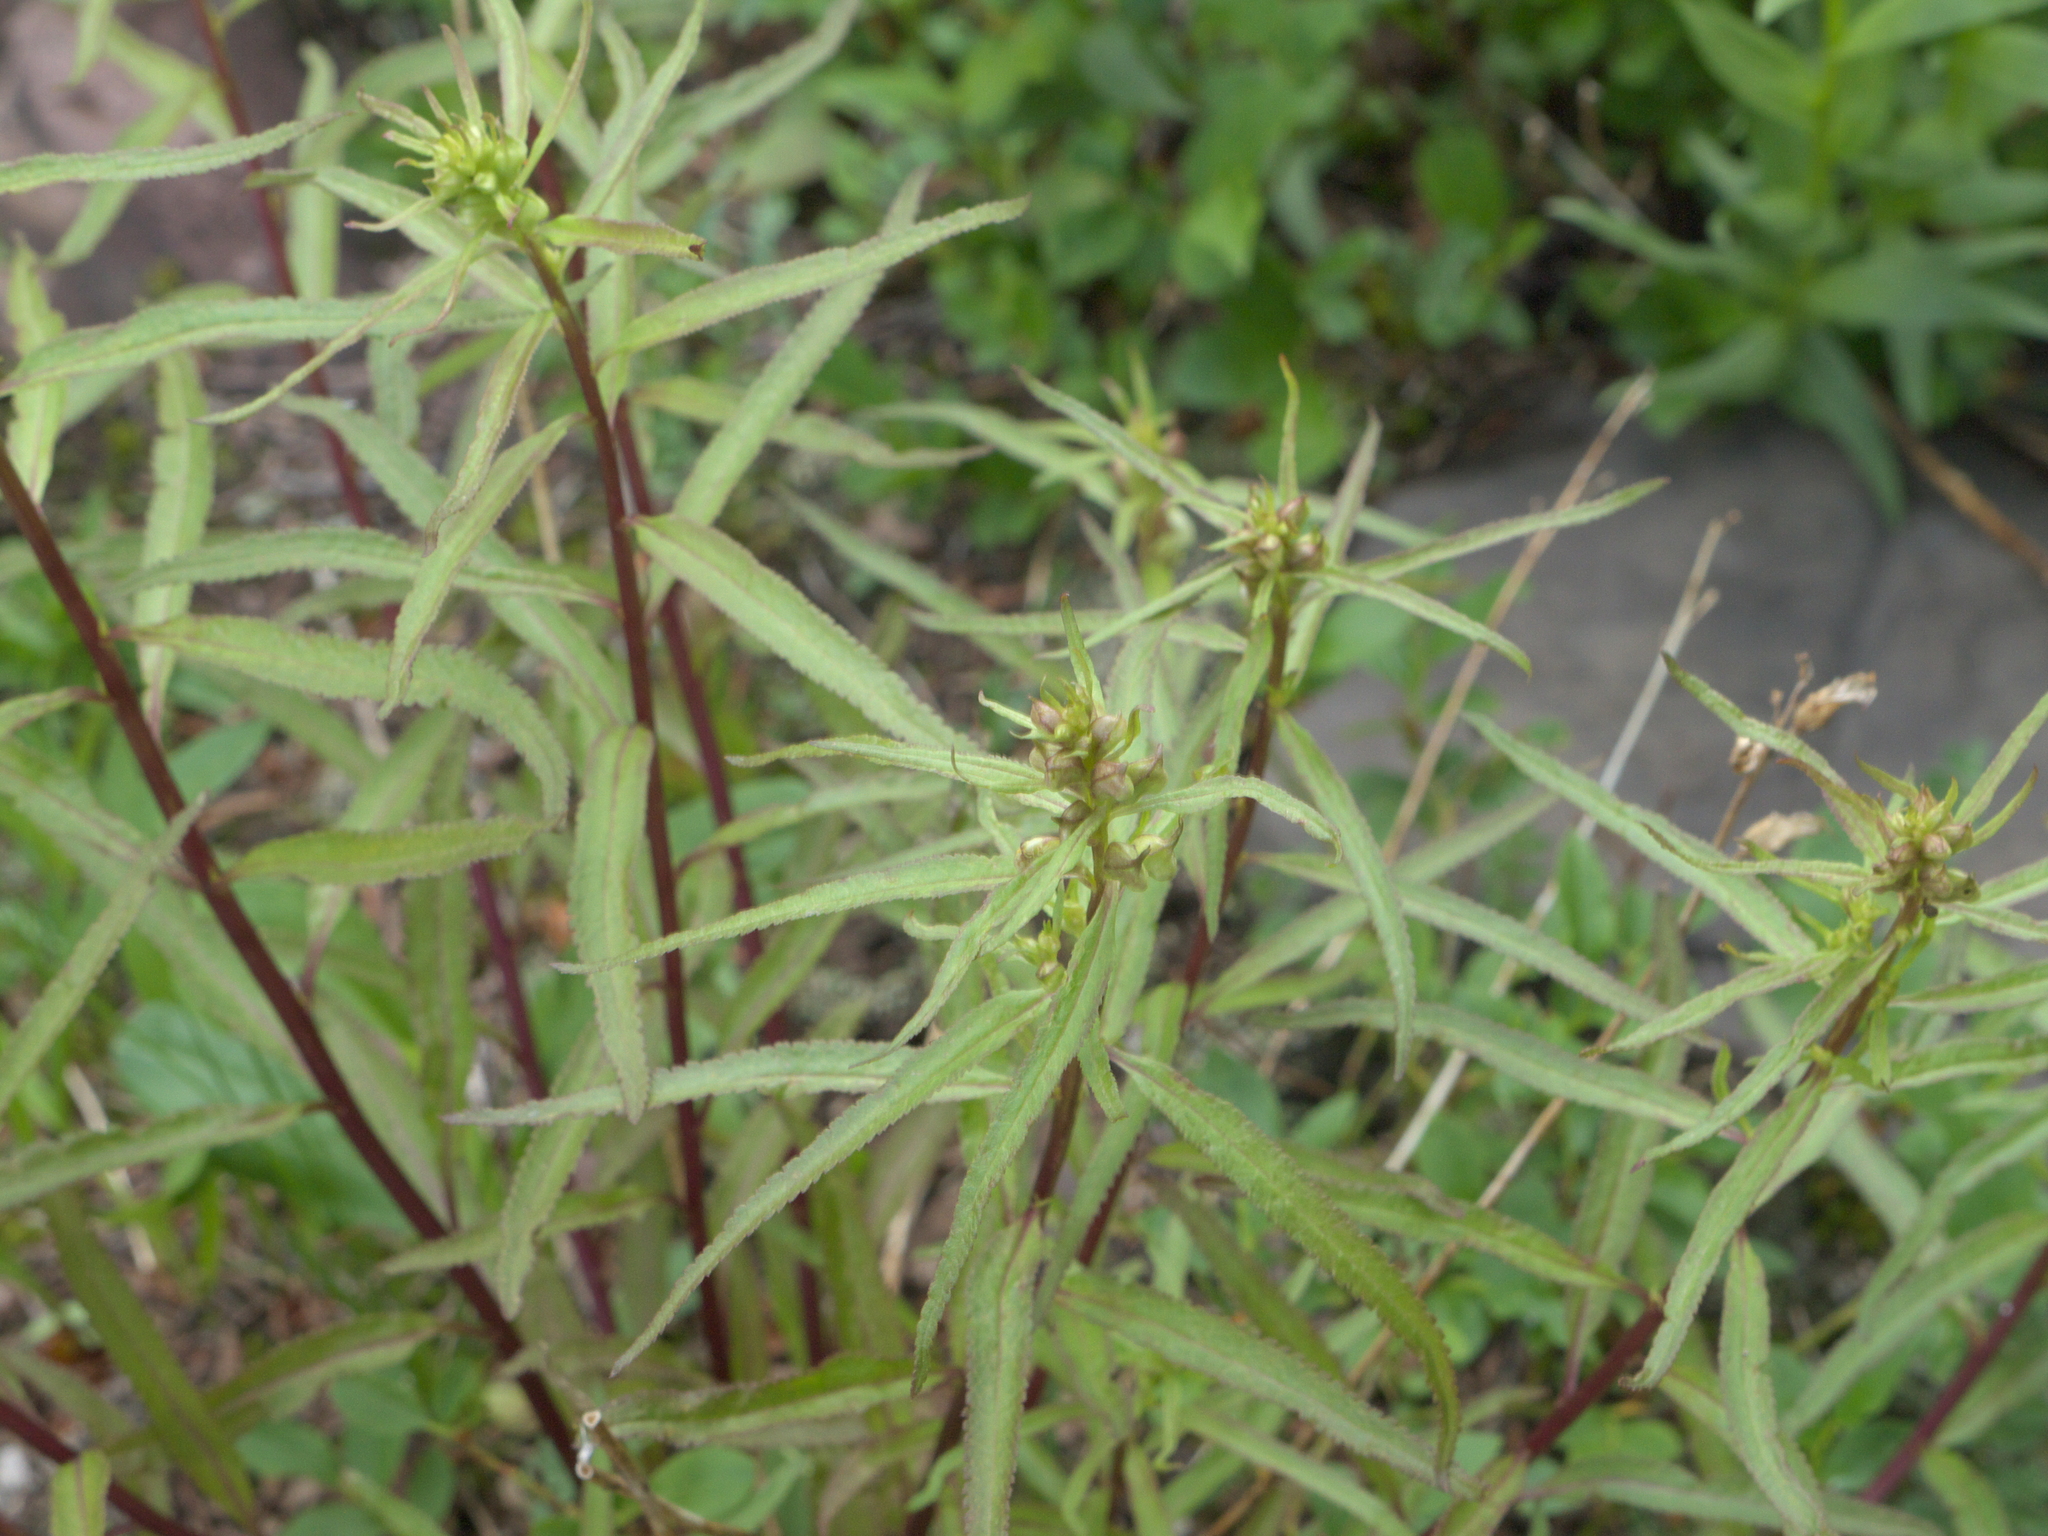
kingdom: Plantae
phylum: Tracheophyta
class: Magnoliopsida
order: Lamiales
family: Orobanchaceae
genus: Pedicularis
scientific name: Pedicularis racemosa
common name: Leafy lousewort
